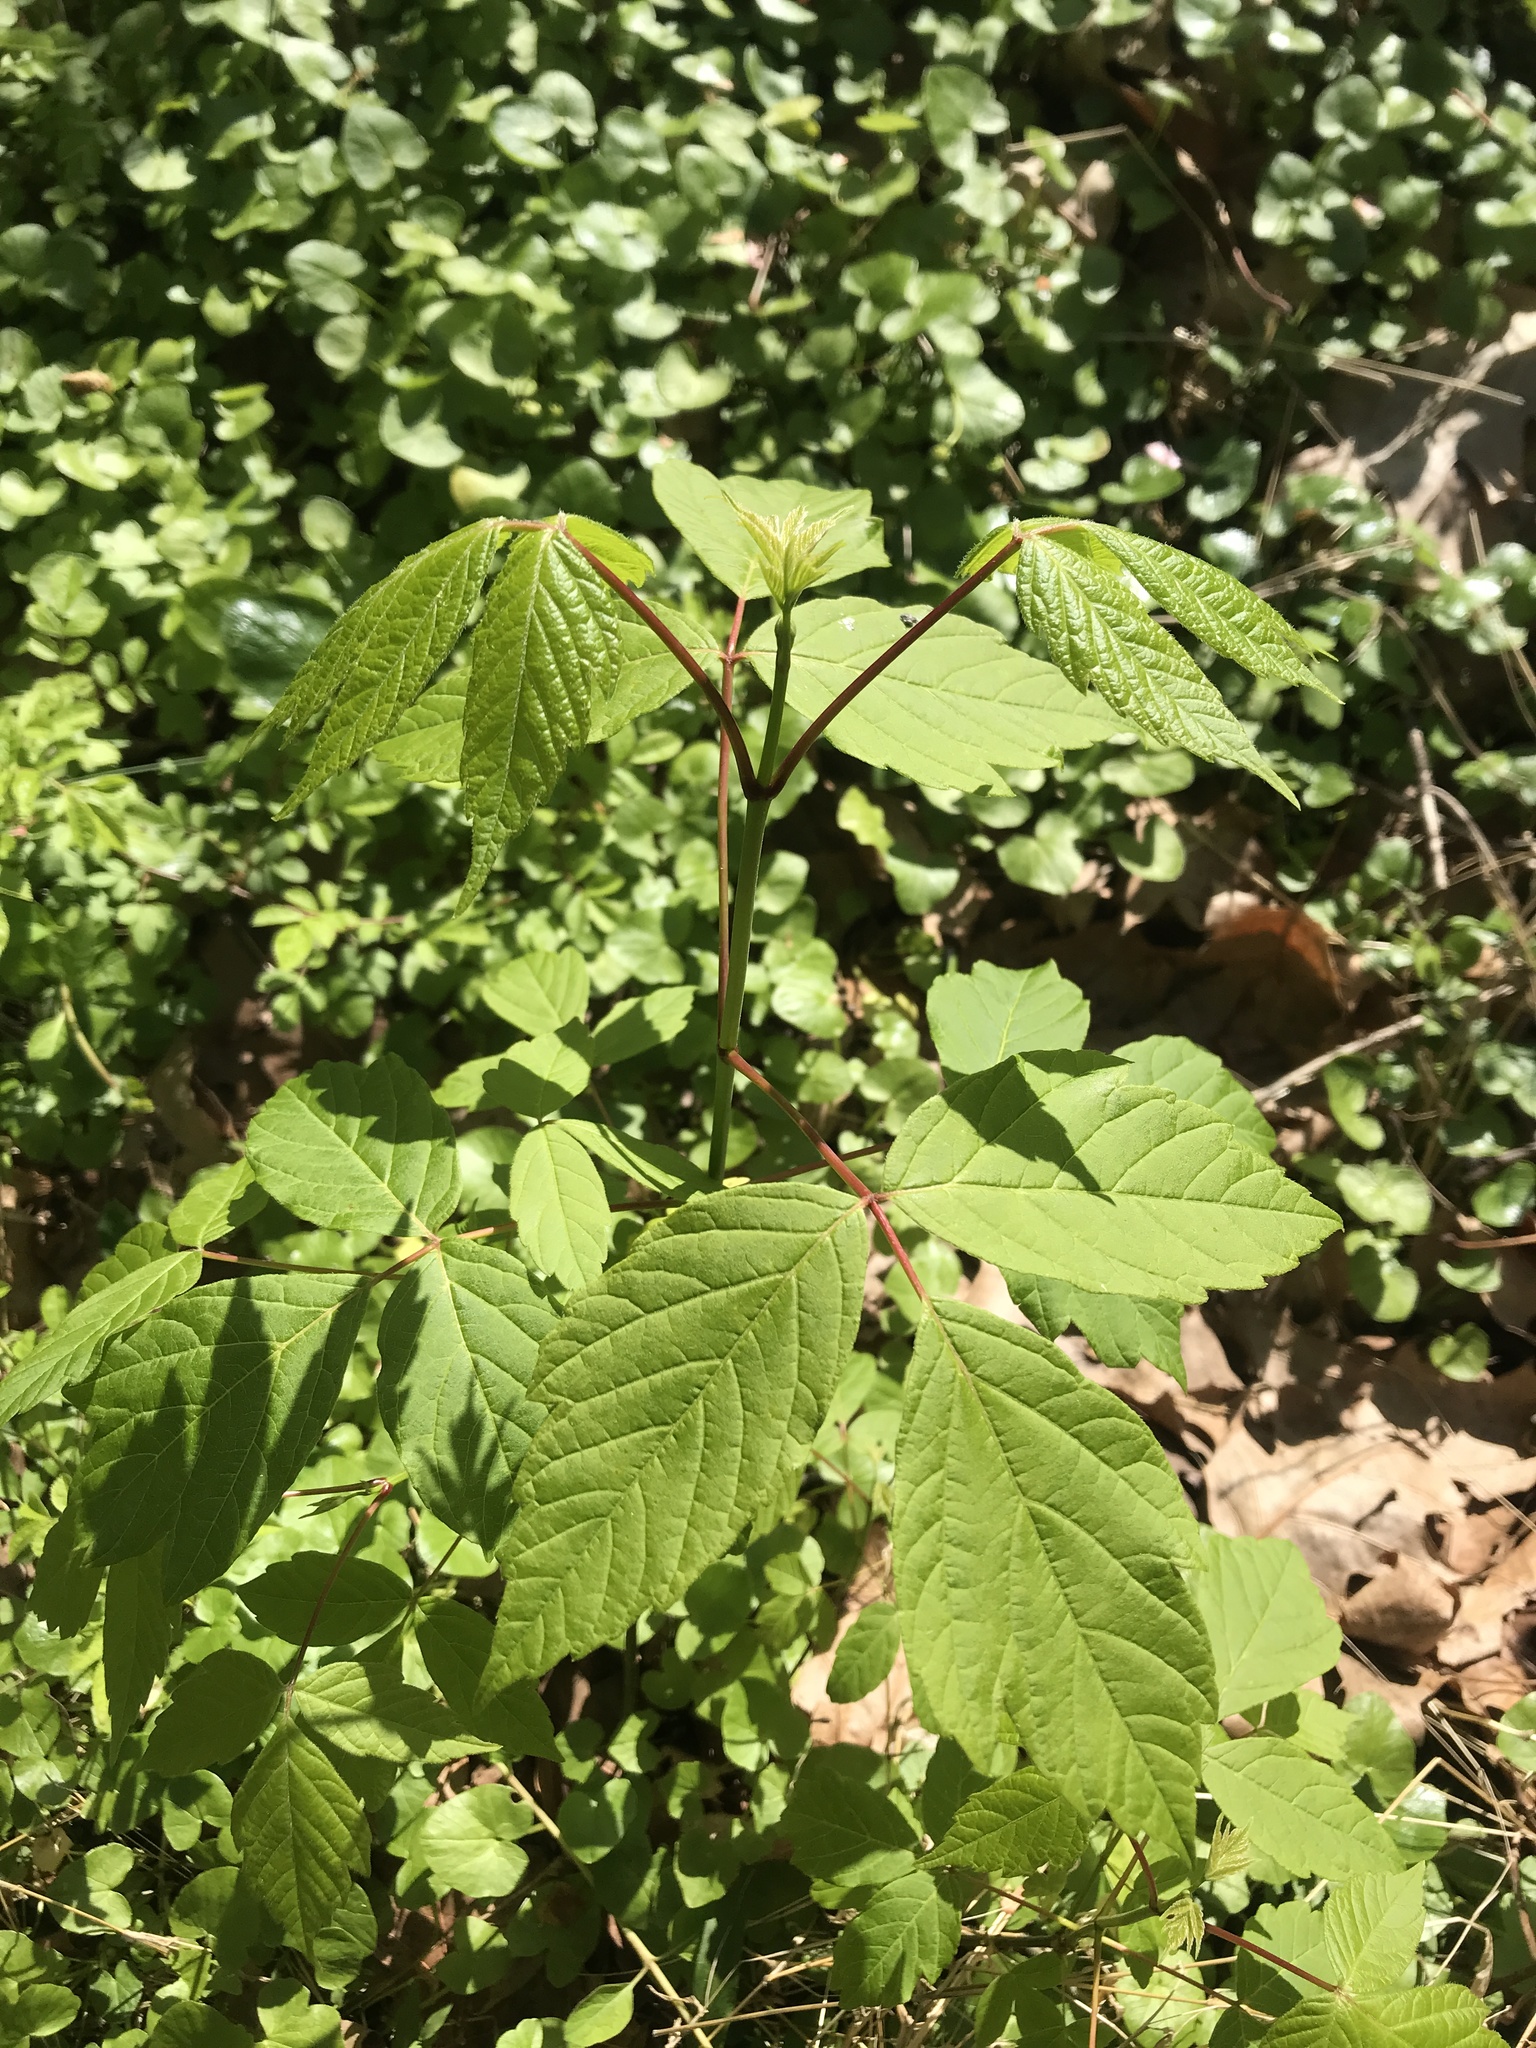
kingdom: Plantae
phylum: Tracheophyta
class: Magnoliopsida
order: Sapindales
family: Sapindaceae
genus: Acer
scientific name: Acer negundo
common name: Ashleaf maple
